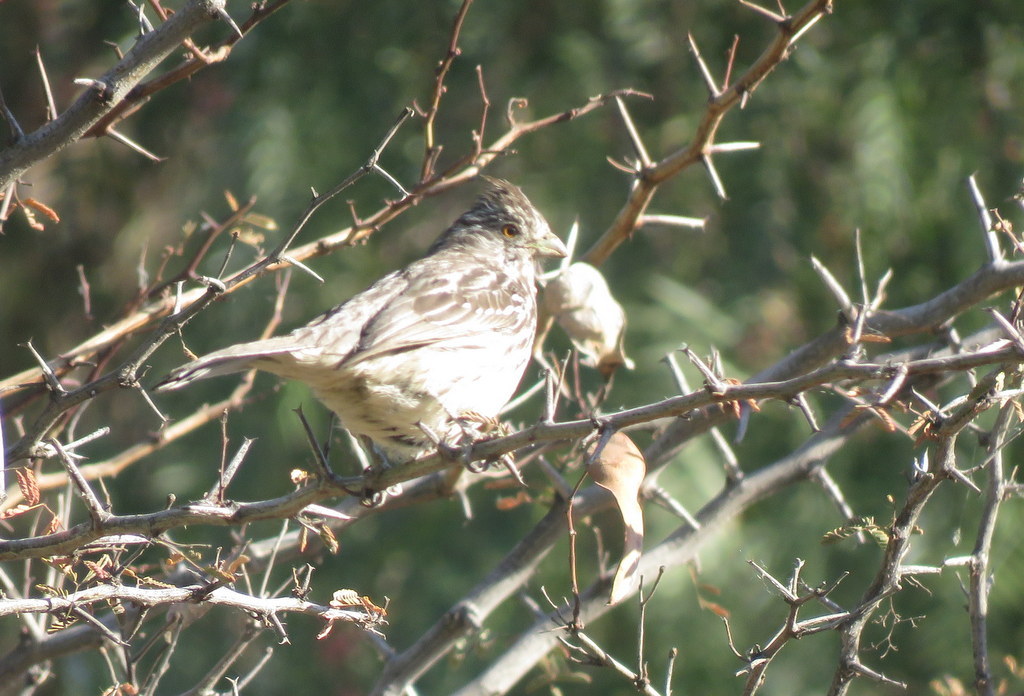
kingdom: Animalia
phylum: Chordata
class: Aves
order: Passeriformes
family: Cotingidae
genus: Phytotoma
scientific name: Phytotoma rutila
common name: White-tipped plantcutter
